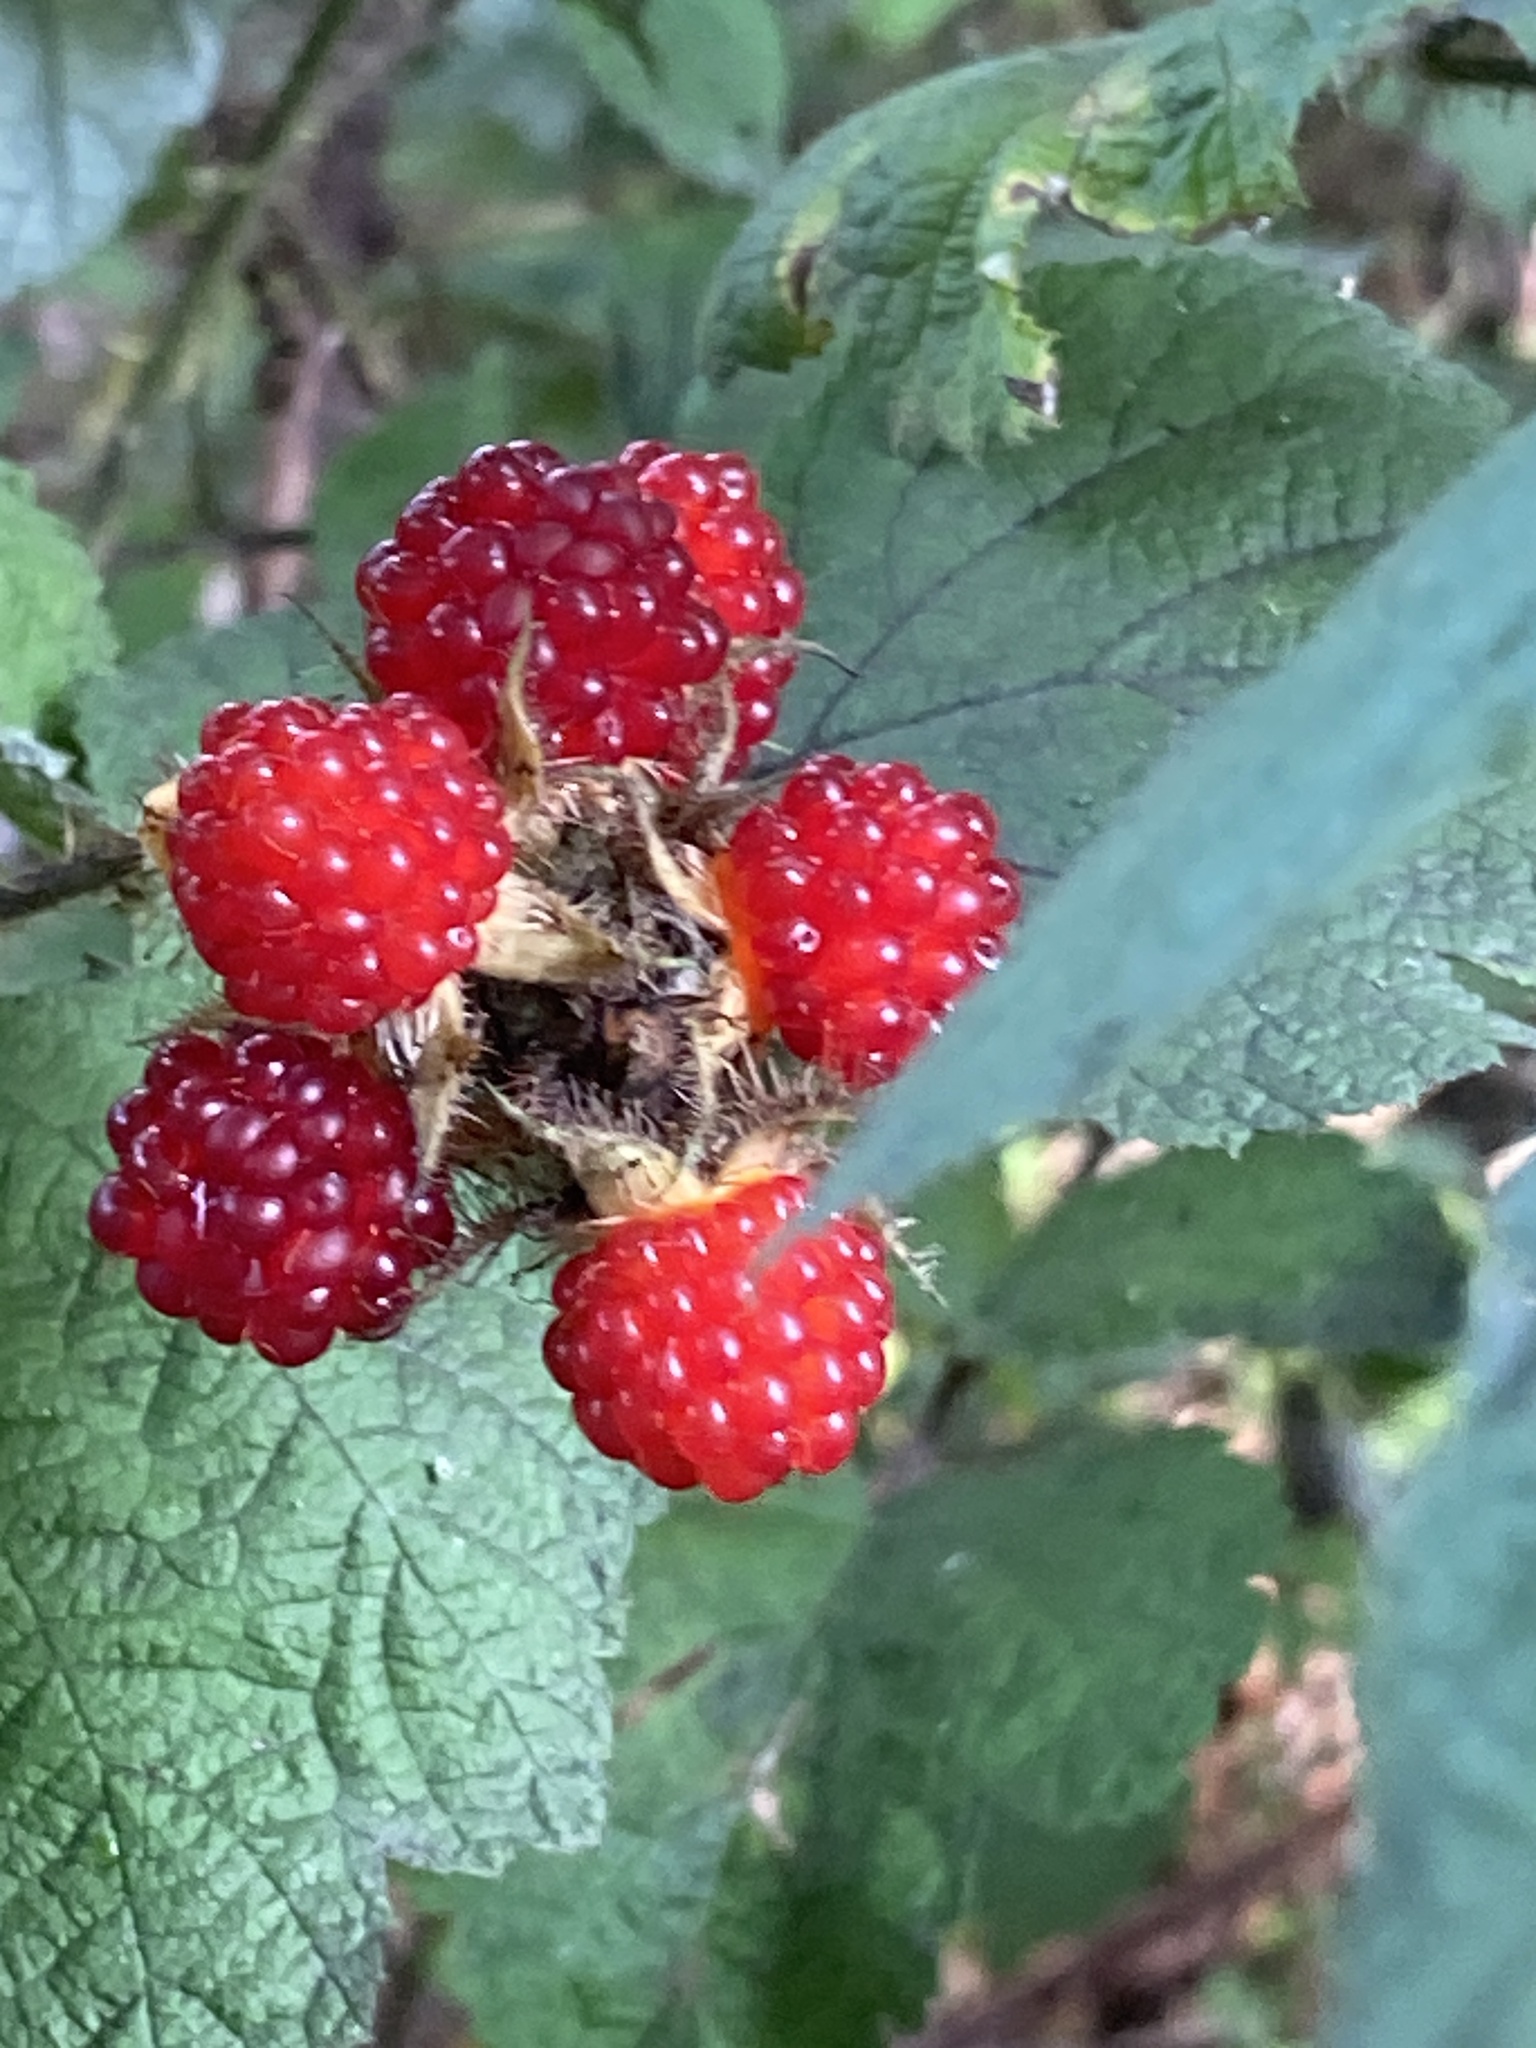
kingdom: Plantae
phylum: Tracheophyta
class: Magnoliopsida
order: Rosales
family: Rosaceae
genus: Rubus
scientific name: Rubus phoenicolasius
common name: Japanese wineberry
